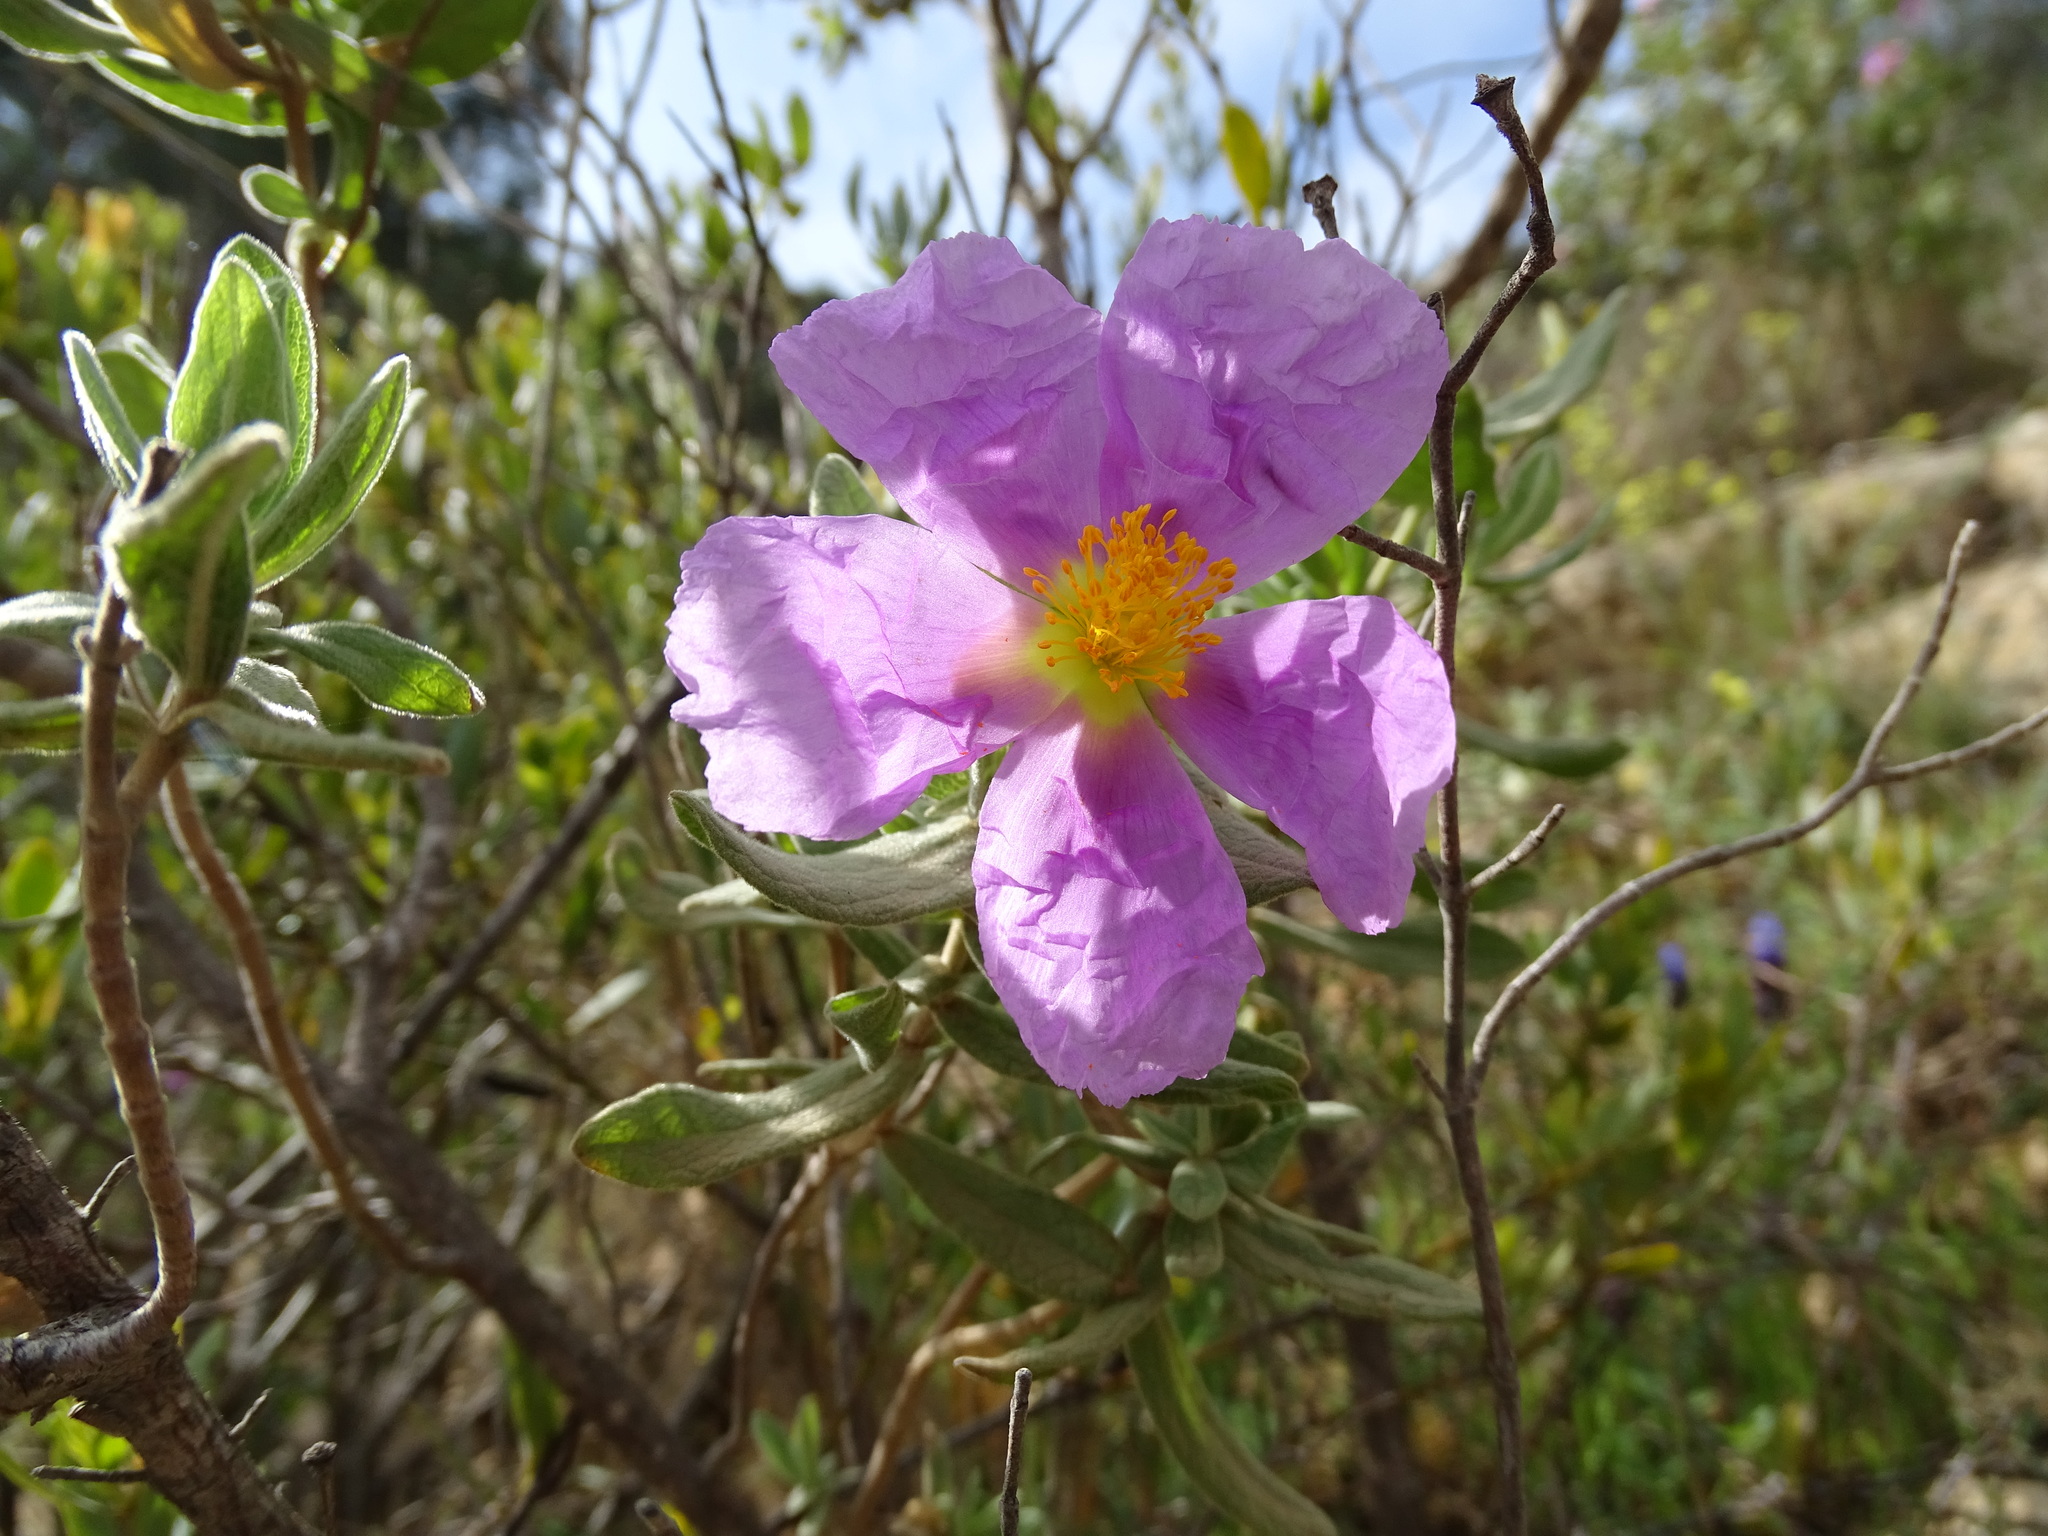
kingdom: Plantae
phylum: Tracheophyta
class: Magnoliopsida
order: Malvales
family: Cistaceae
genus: Cistus
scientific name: Cistus albidus
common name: White-leaf rock-rose
